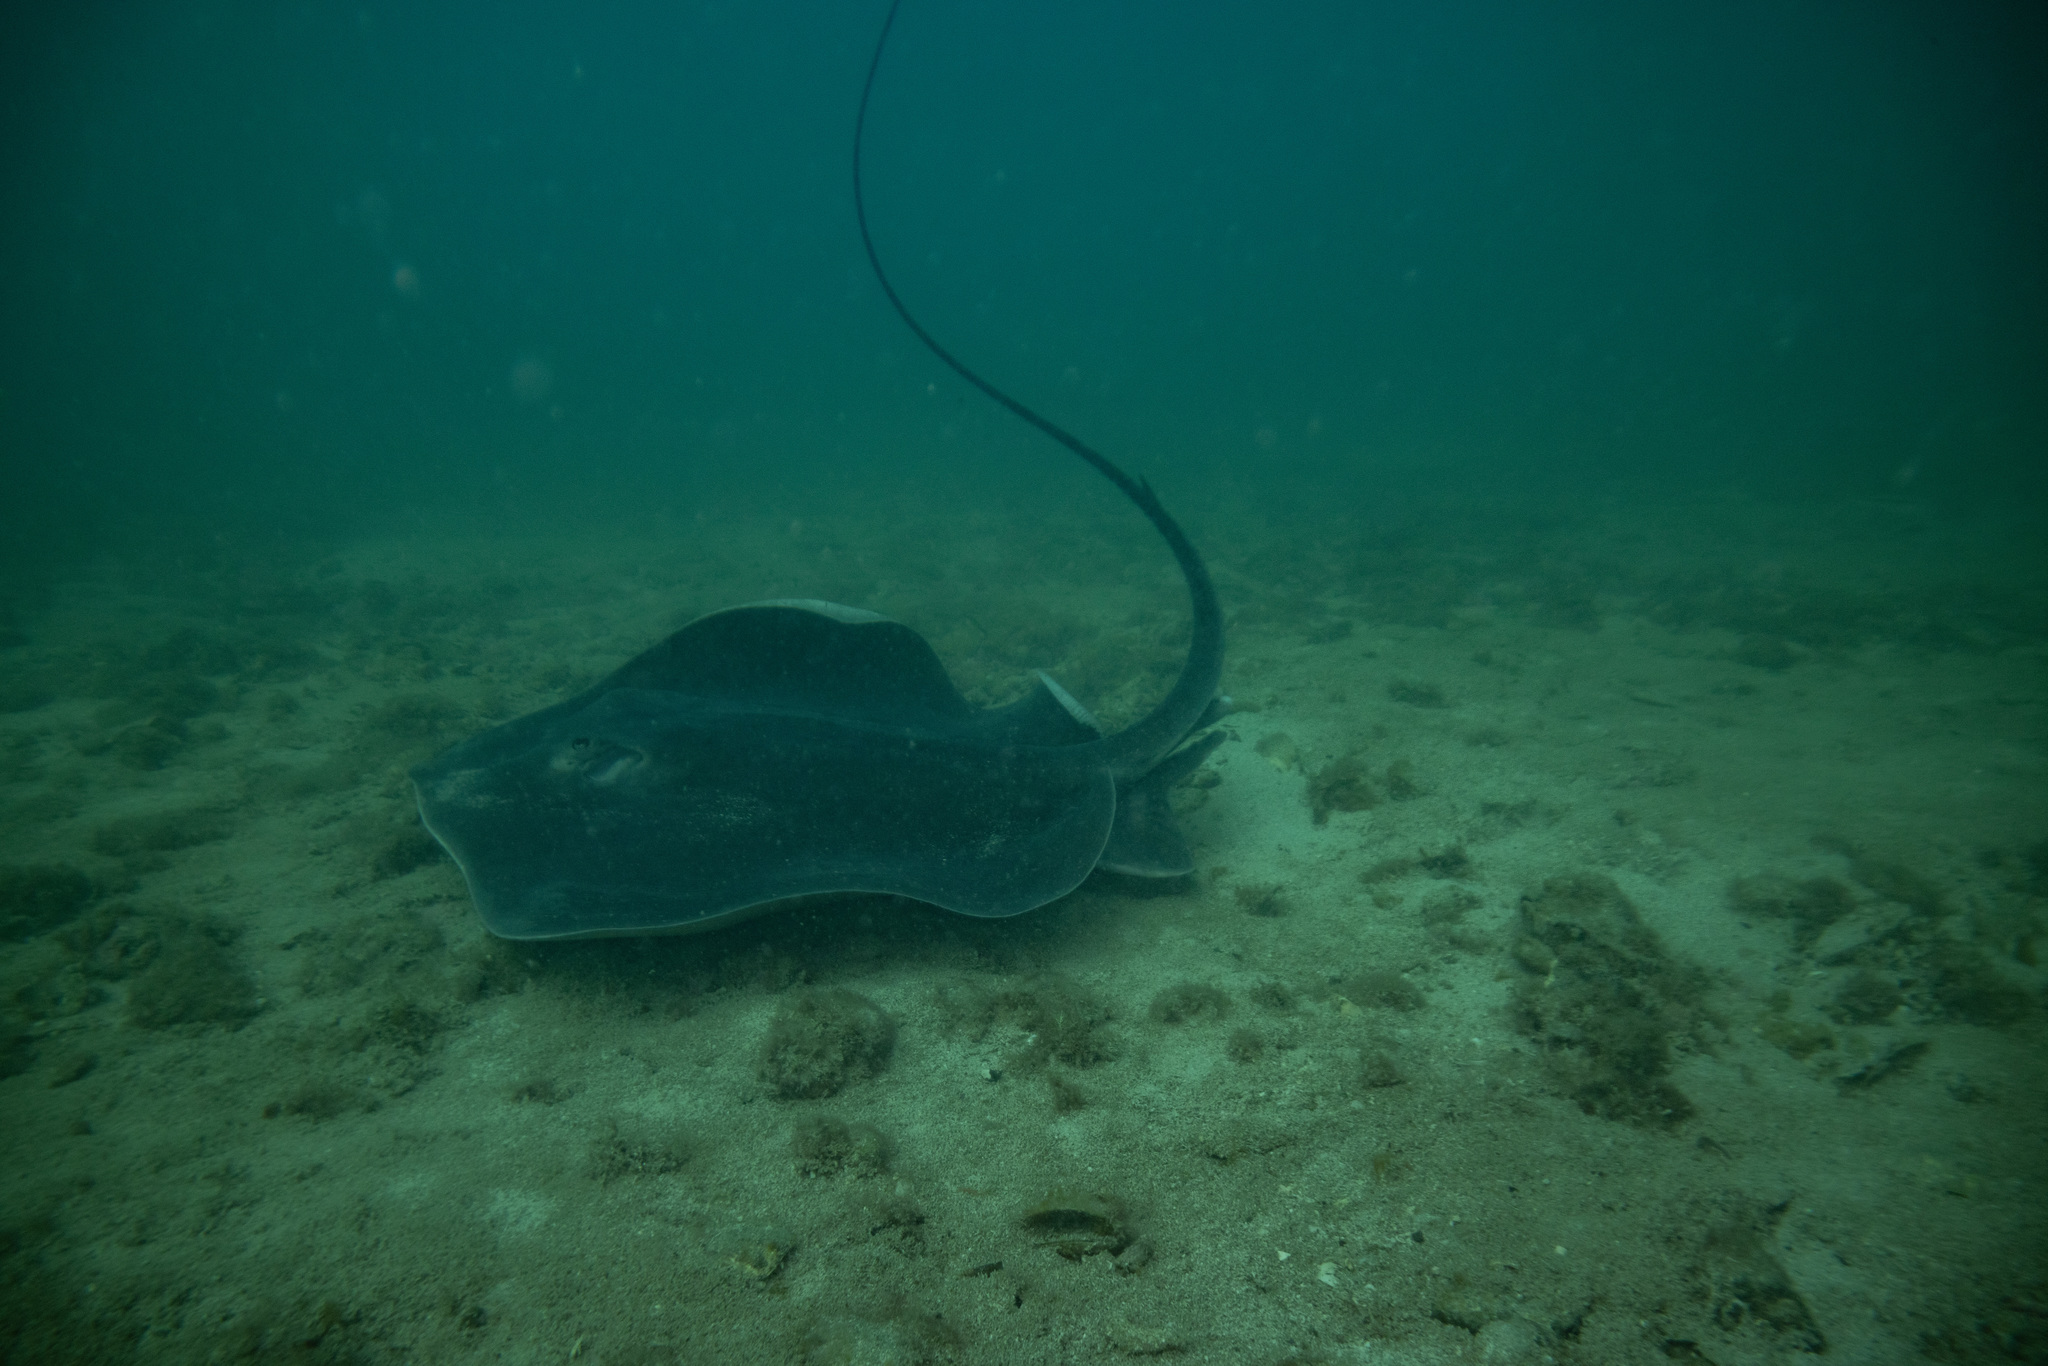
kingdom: Animalia
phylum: Chordata
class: Elasmobranchii
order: Myliobatiformes
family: Dasyatidae
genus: Bathytoshia
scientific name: Bathytoshia lata
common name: Brown stingray
